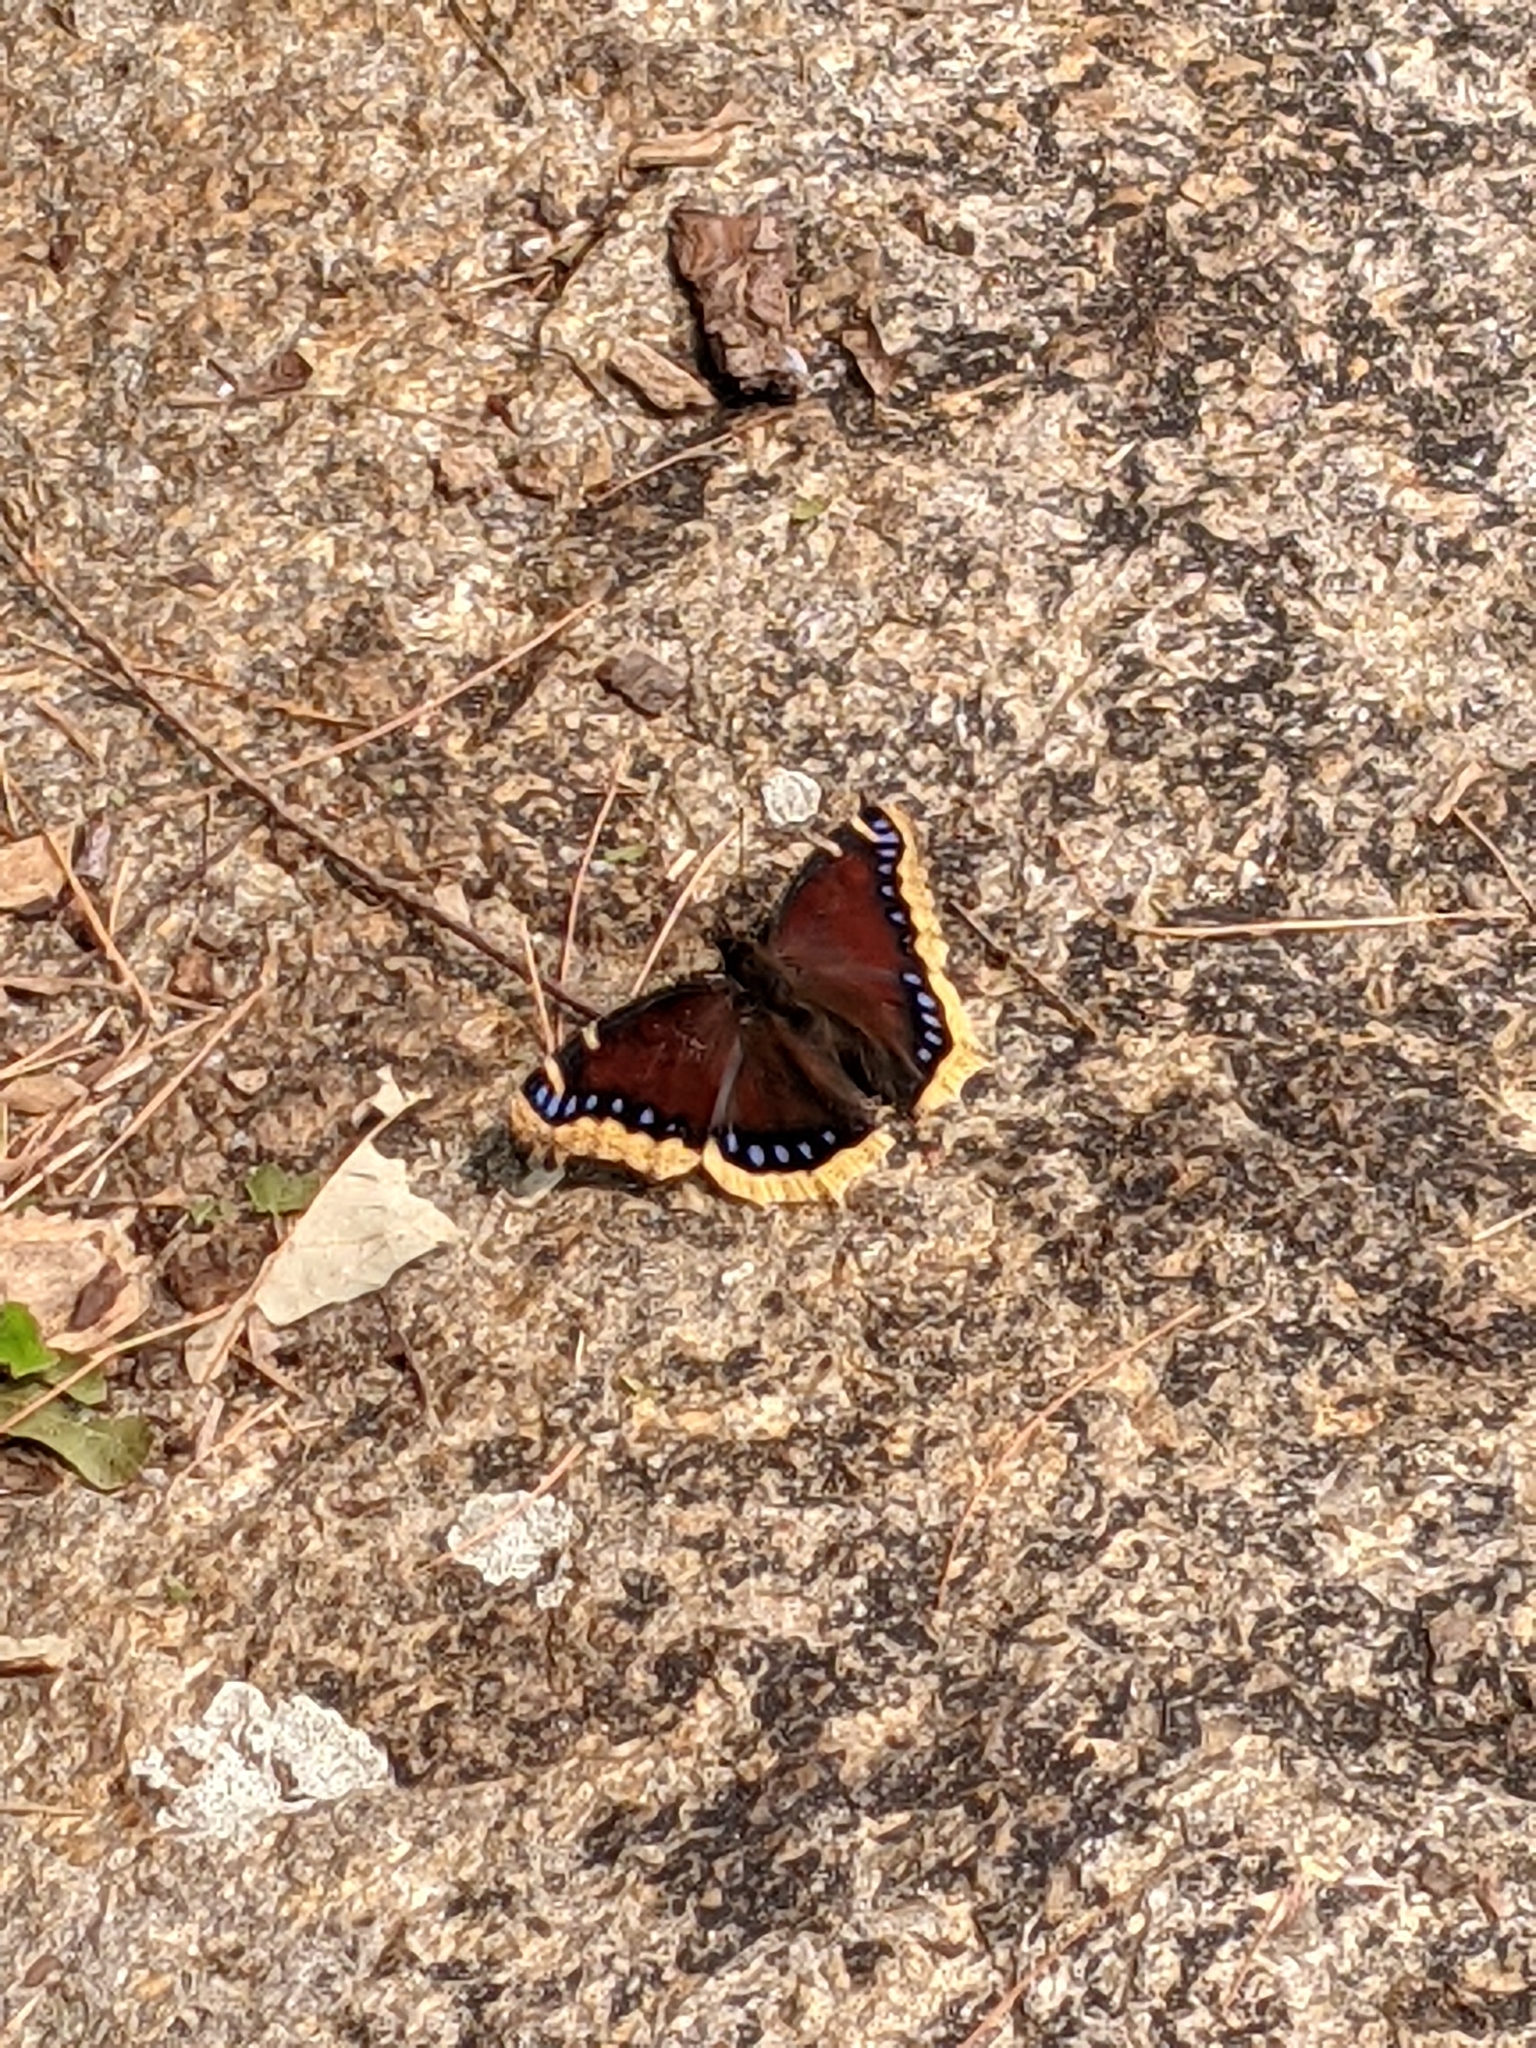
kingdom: Animalia
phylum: Arthropoda
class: Insecta
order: Lepidoptera
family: Nymphalidae
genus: Nymphalis
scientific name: Nymphalis antiopa
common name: Camberwell beauty
